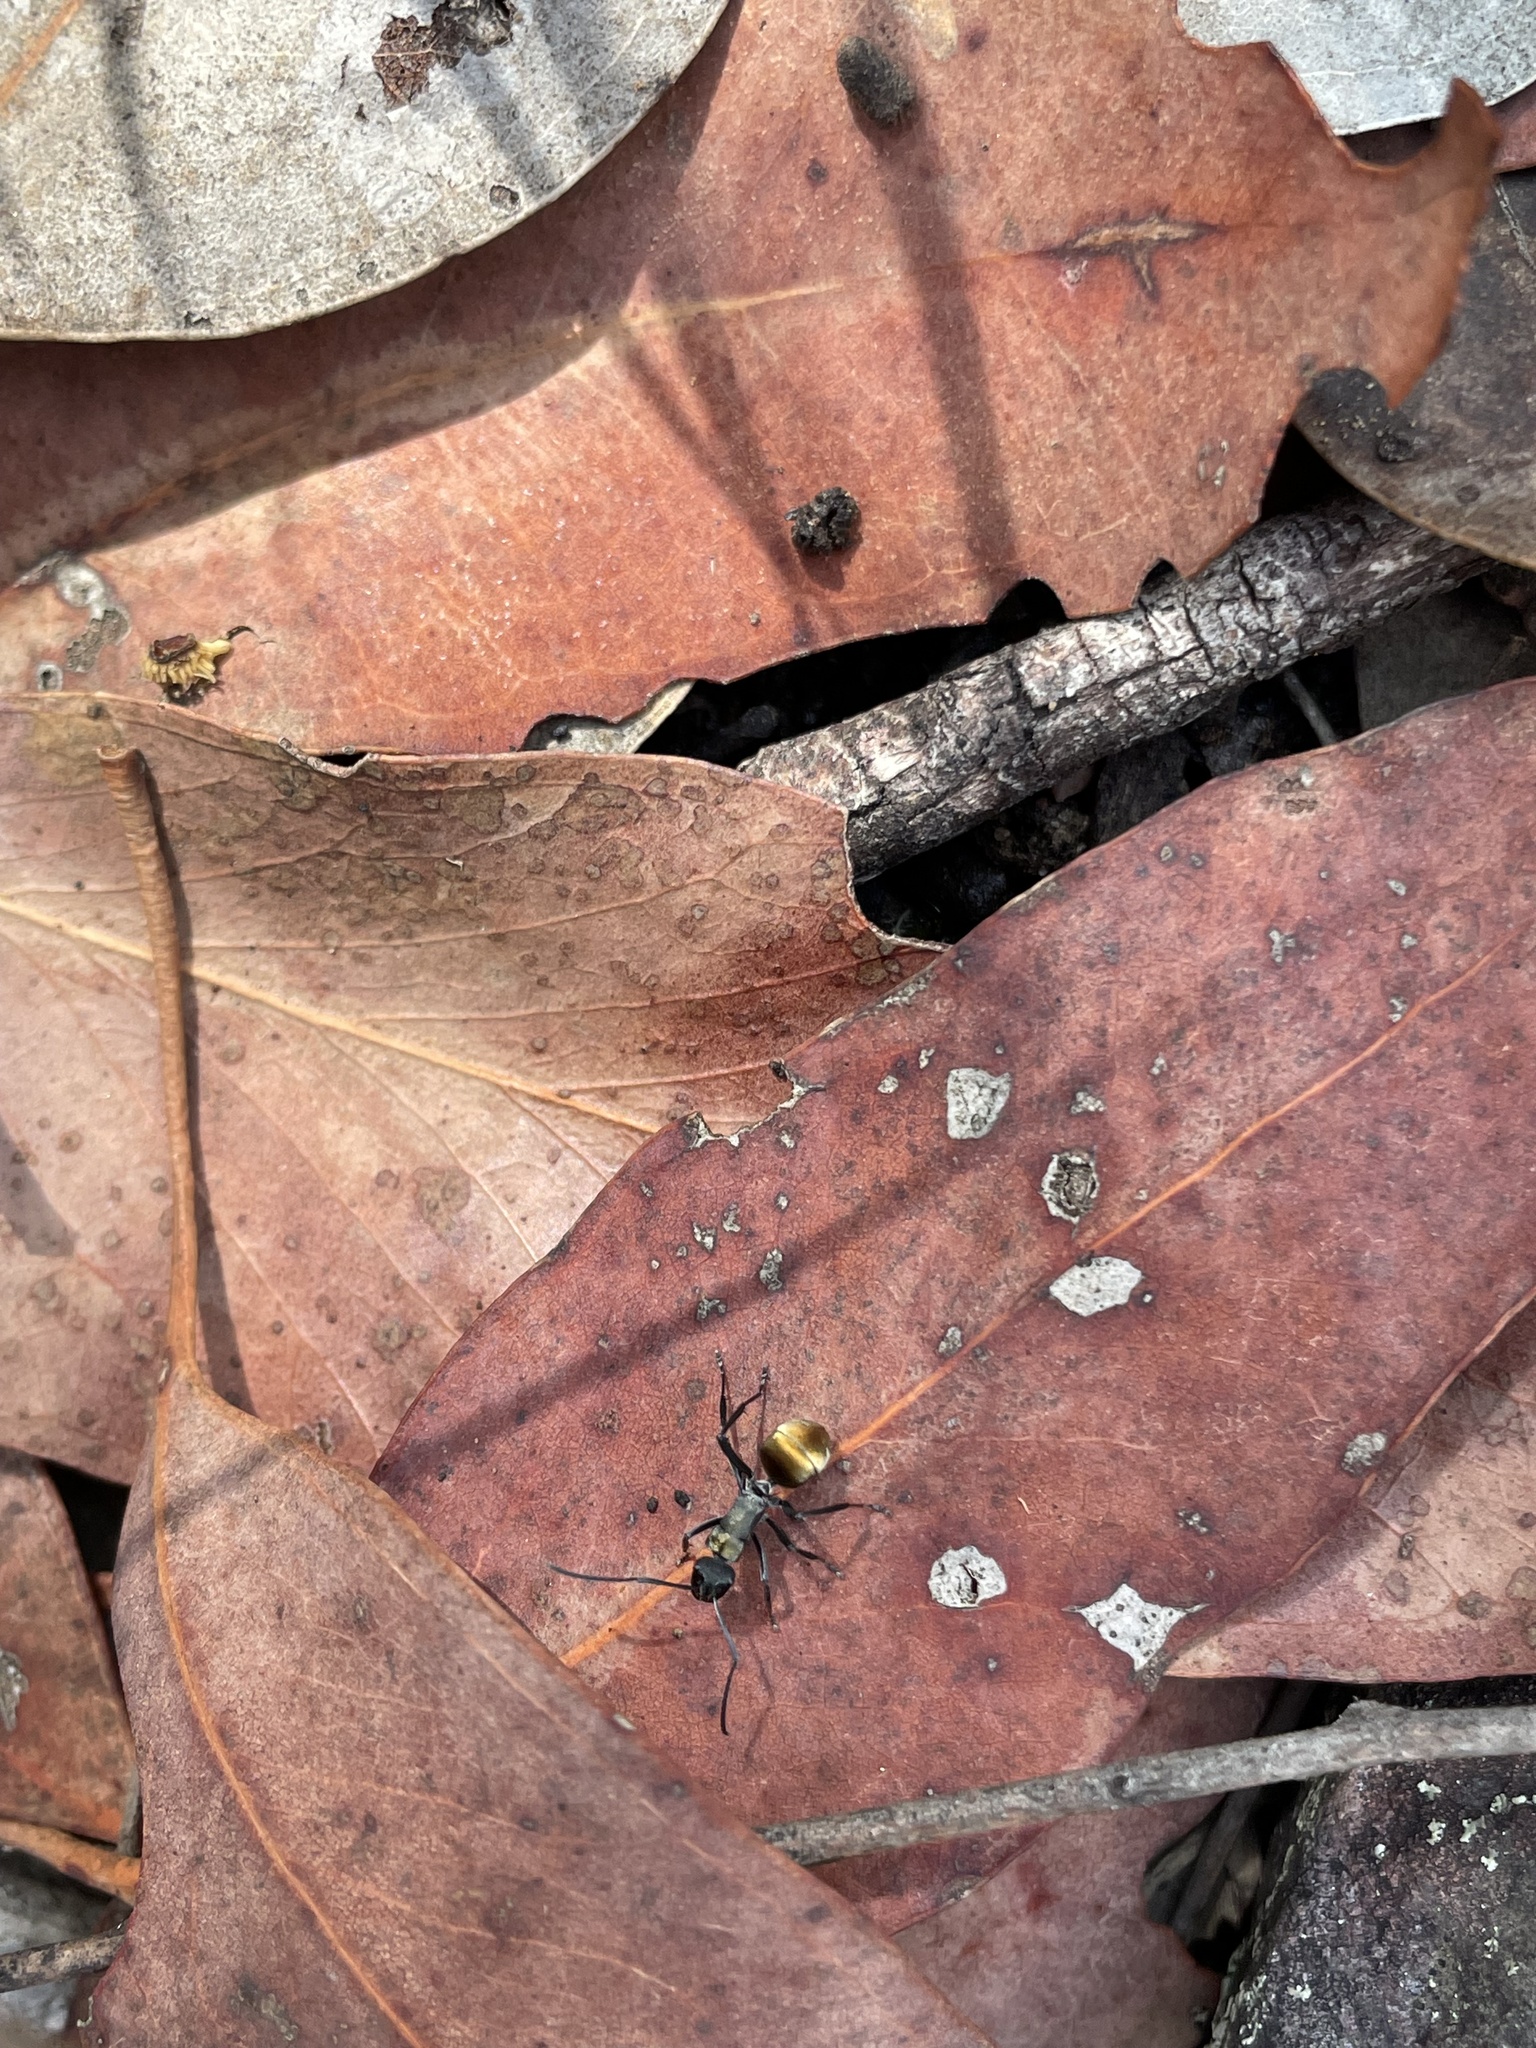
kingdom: Animalia
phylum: Arthropoda
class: Insecta
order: Hymenoptera
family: Formicidae
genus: Polyrhachis
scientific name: Polyrhachis ammon
